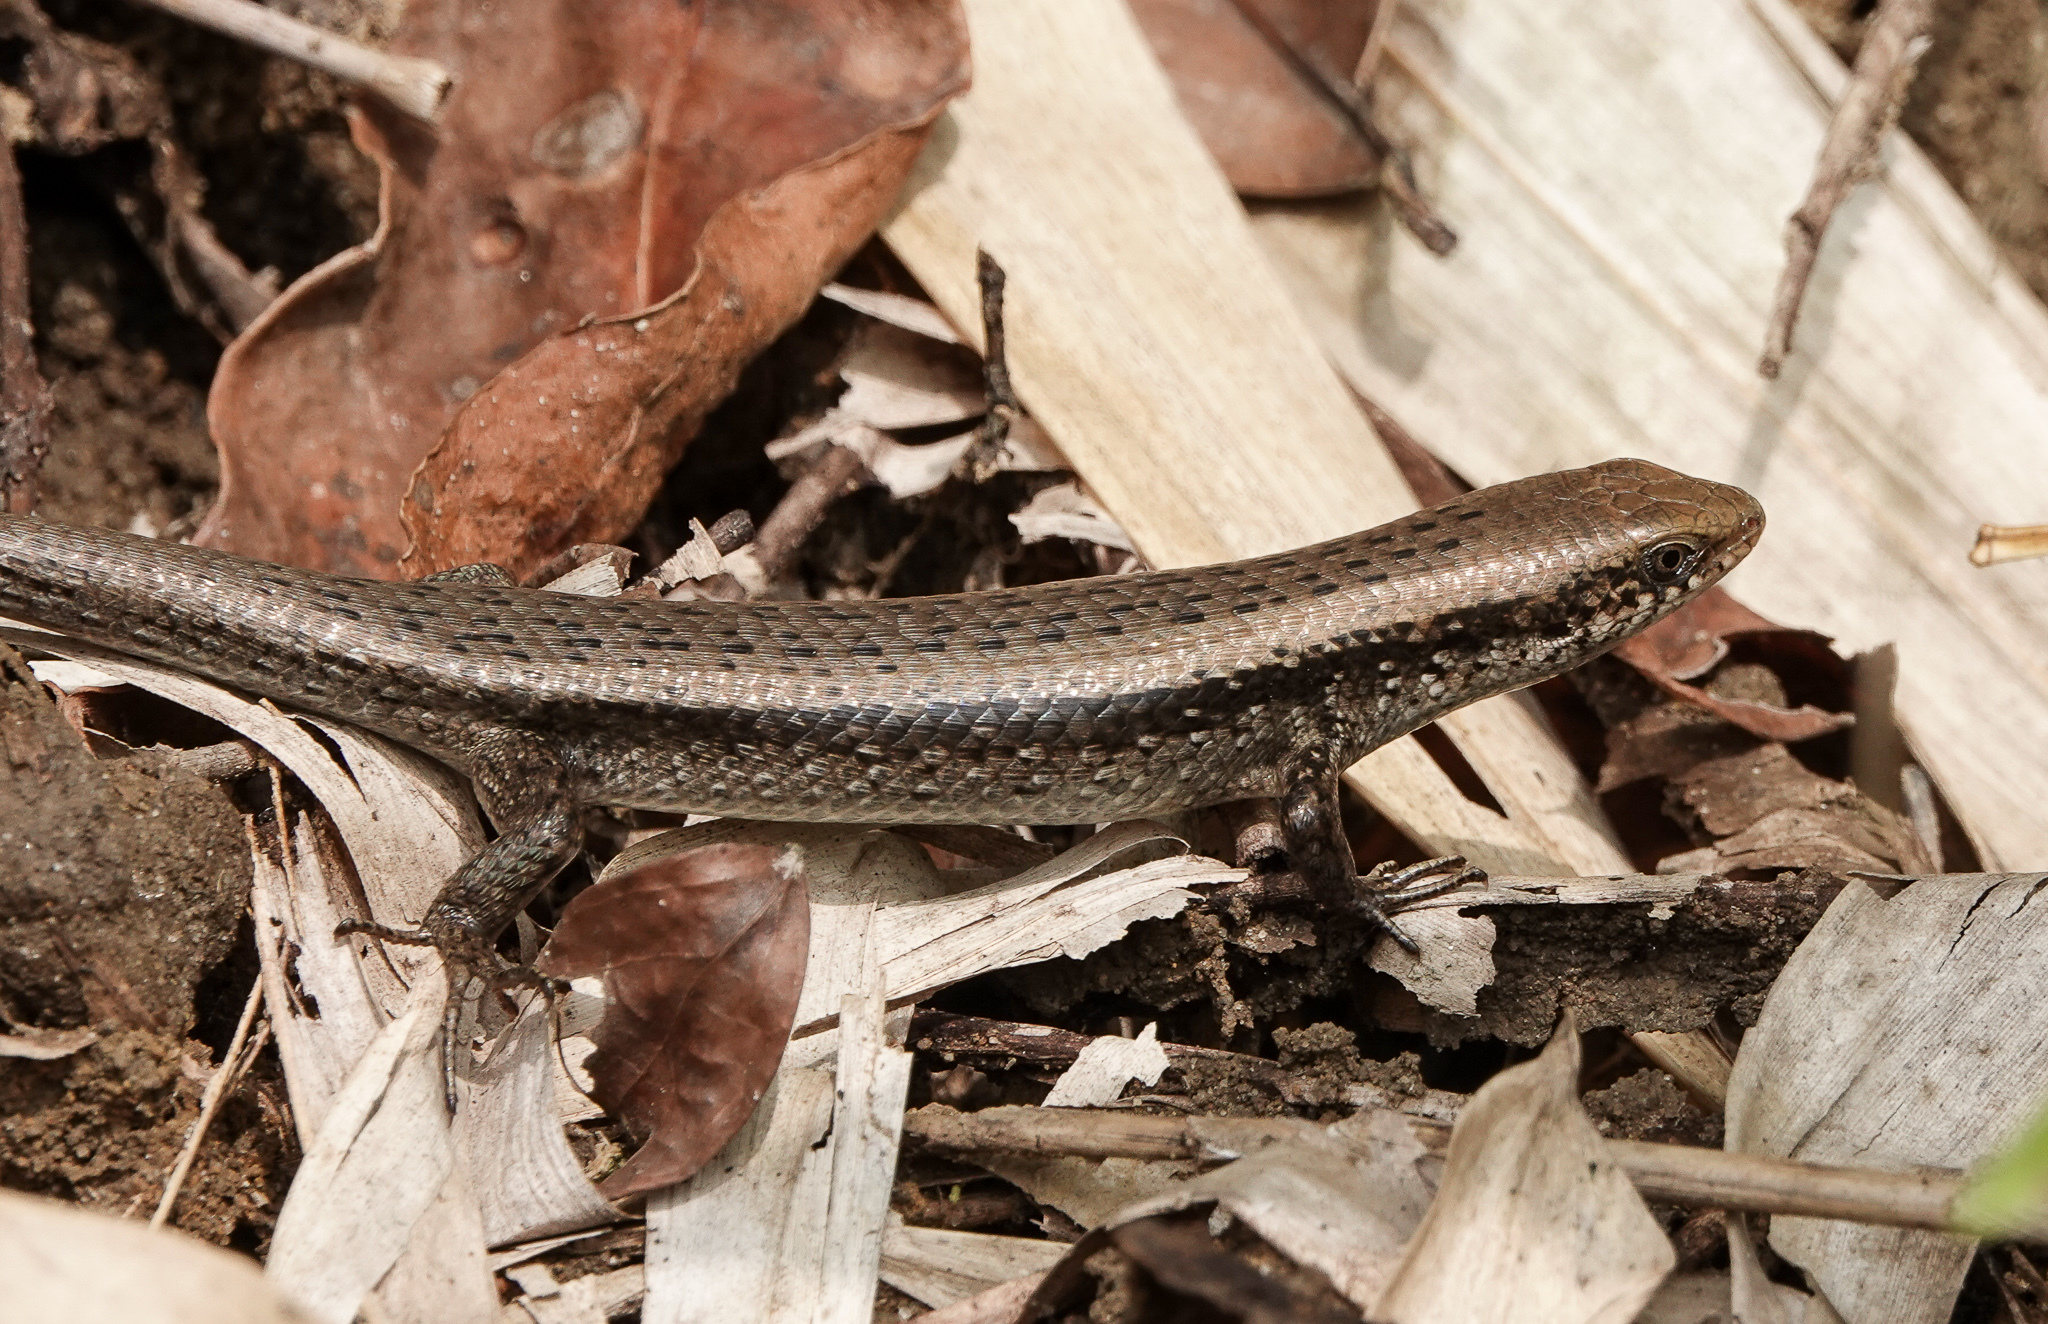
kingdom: Animalia
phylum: Chordata
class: Squamata
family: Scincidae
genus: Eutropis
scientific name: Eutropis macularia
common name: Bronze mabuya
